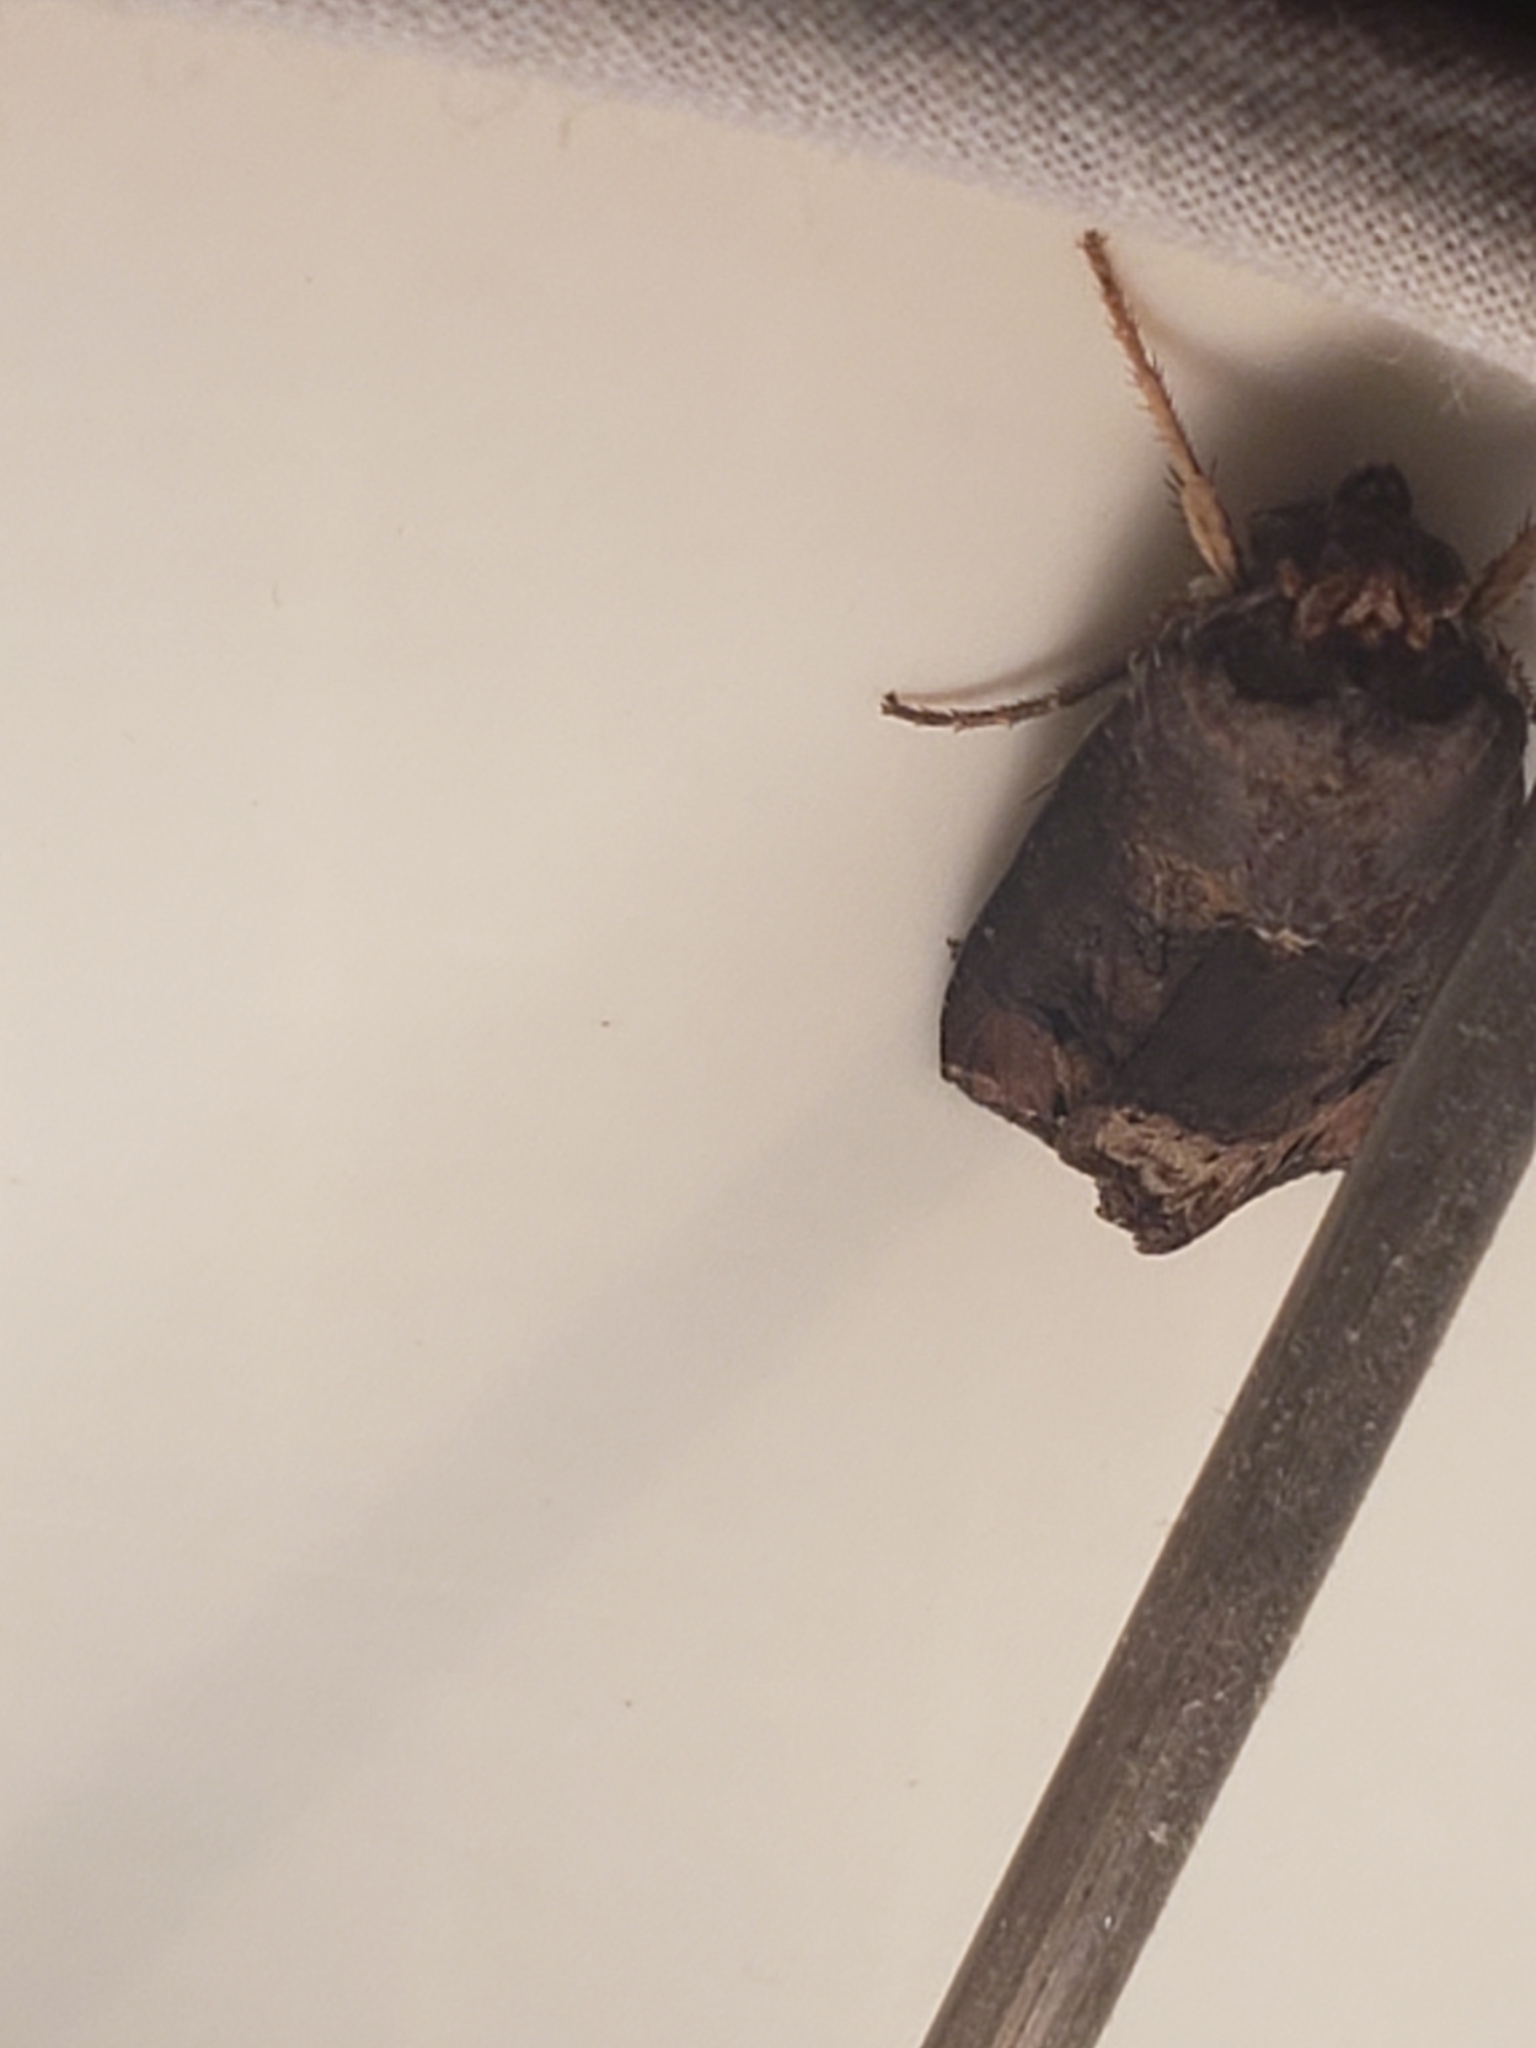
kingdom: Animalia
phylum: Arthropoda
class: Insecta
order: Lepidoptera
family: Noctuidae
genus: Agrotis
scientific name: Agrotis ipsilon
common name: Dark sword-grass
